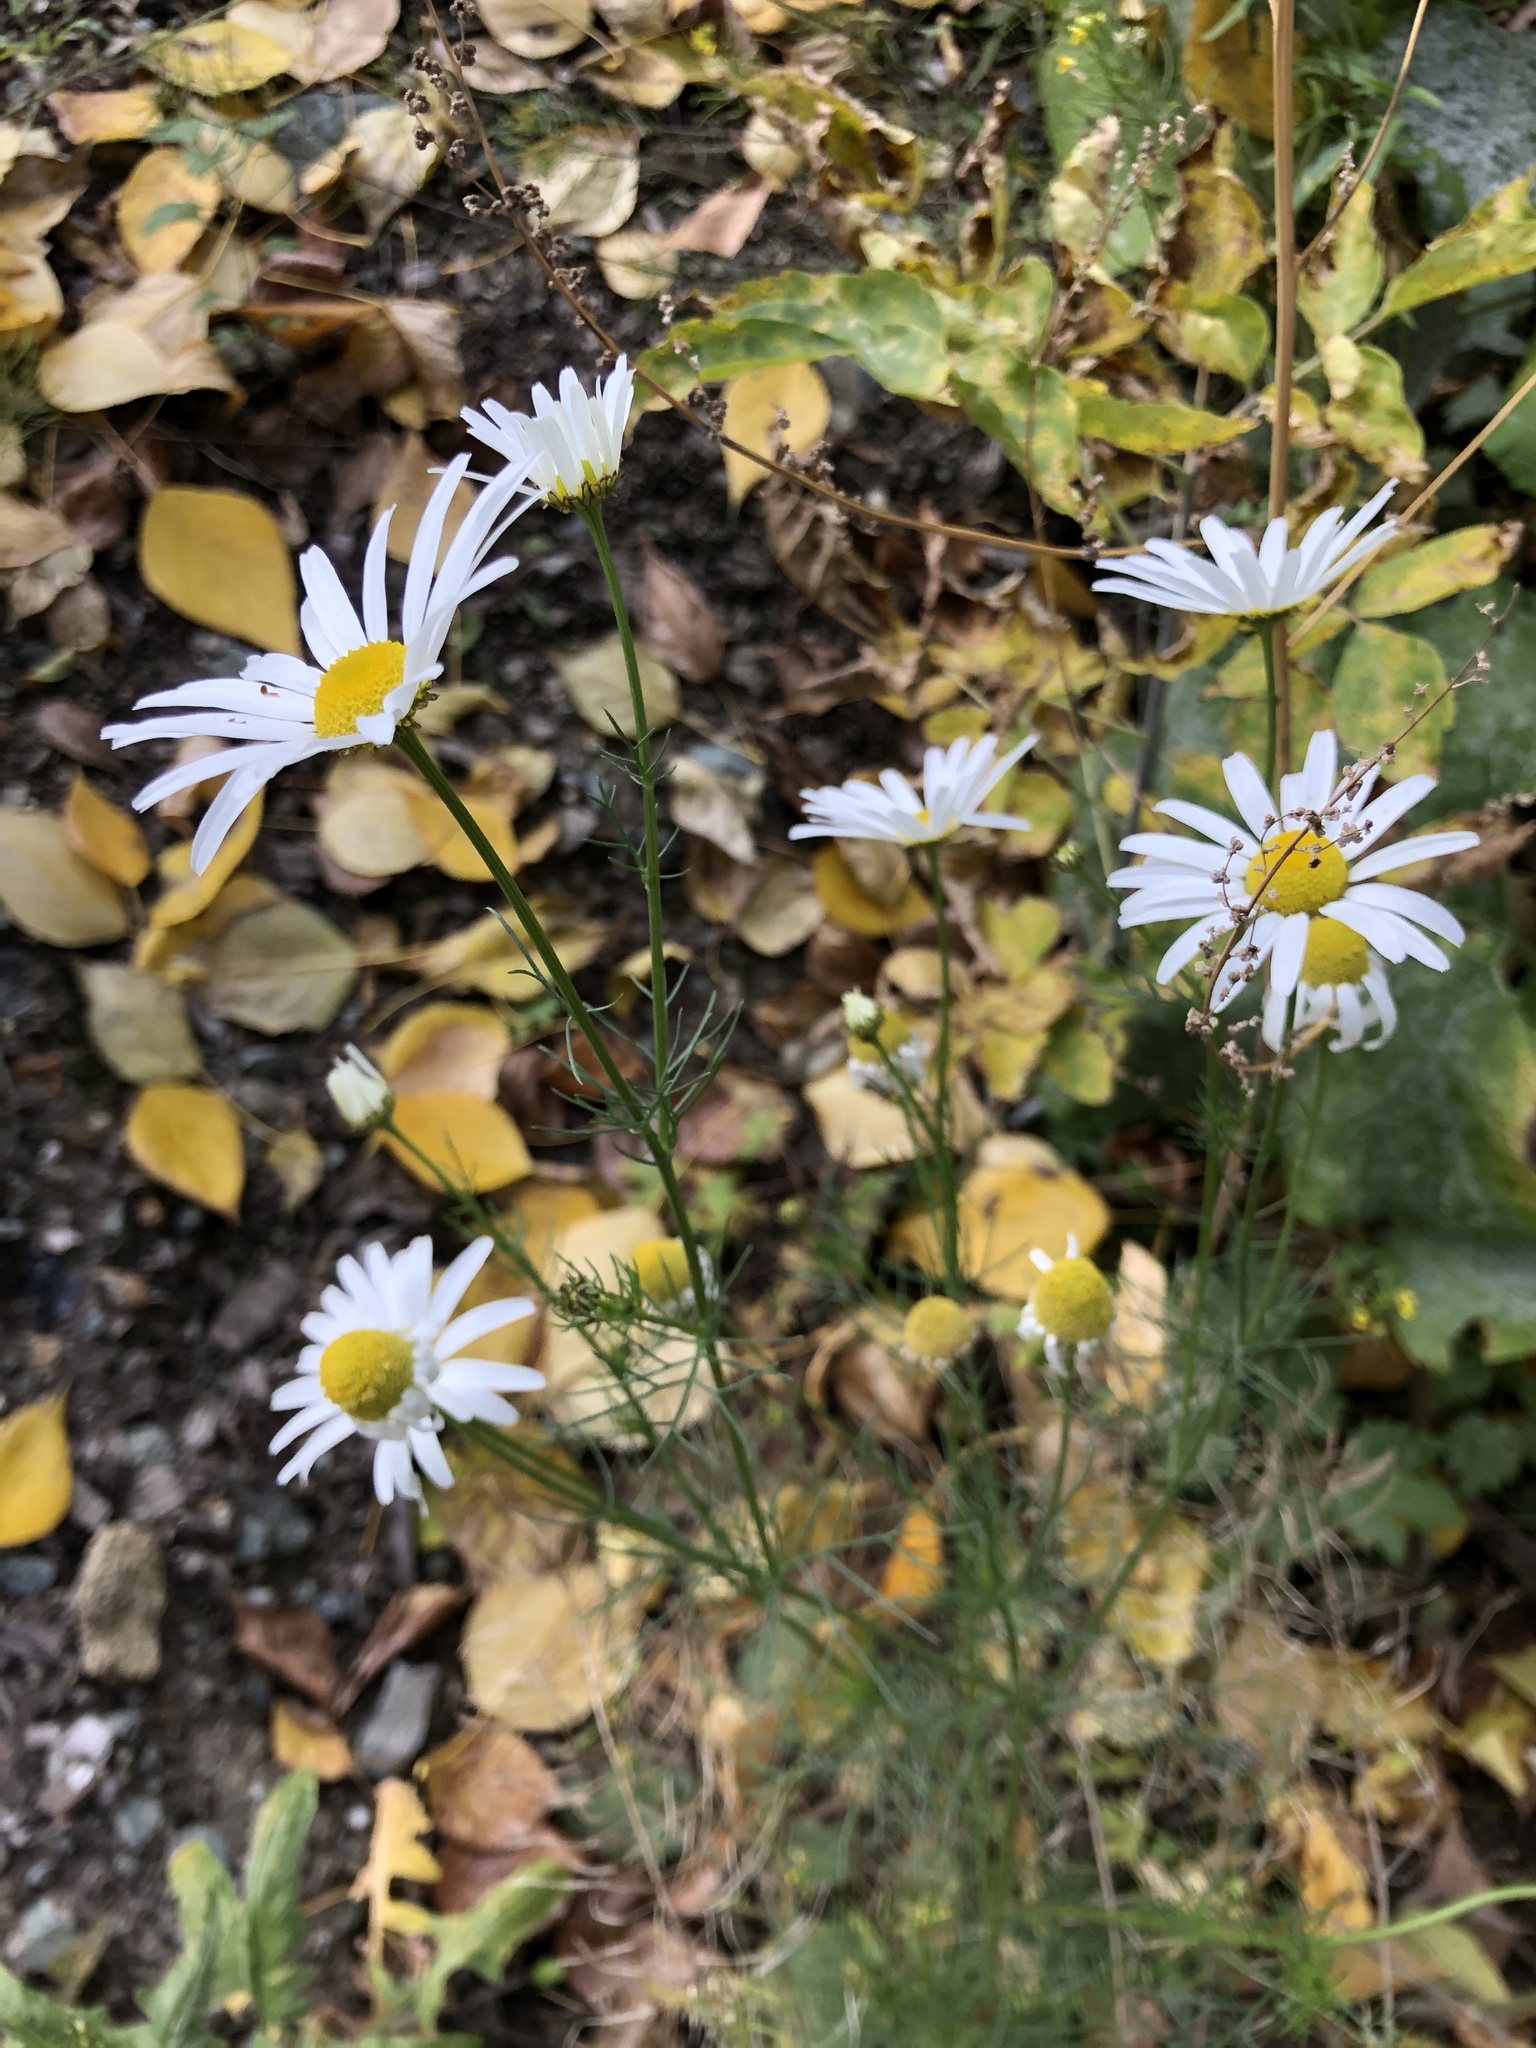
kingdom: Plantae
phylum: Tracheophyta
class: Magnoliopsida
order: Asterales
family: Asteraceae
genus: Tripleurospermum
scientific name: Tripleurospermum inodorum
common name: Scentless mayweed
